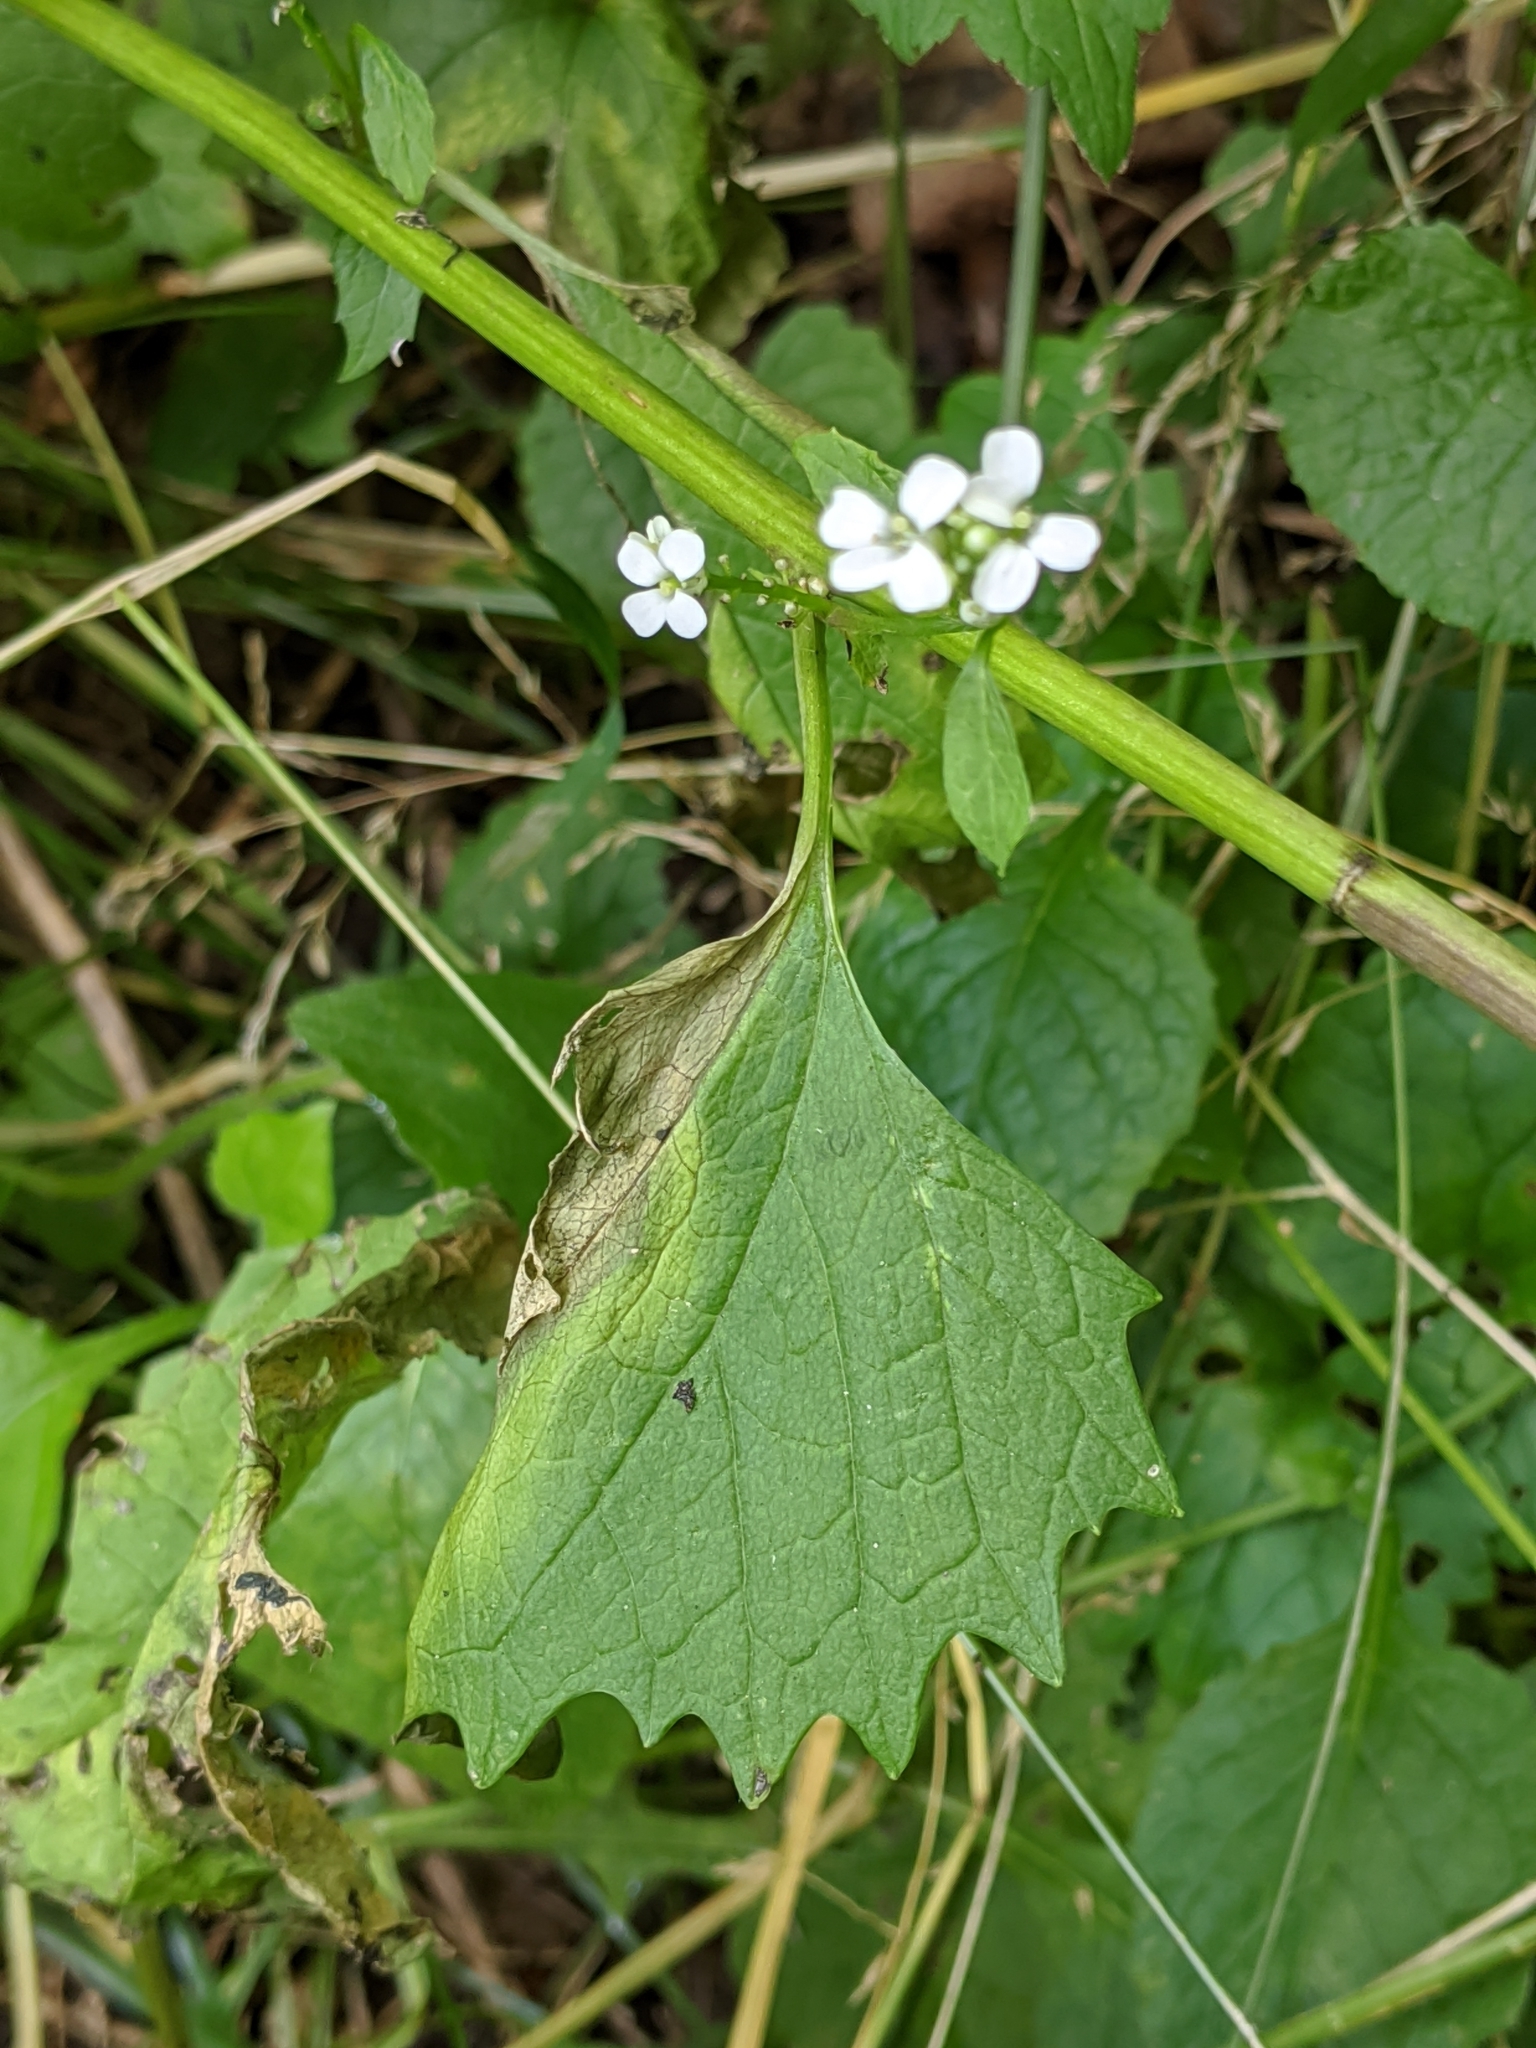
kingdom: Plantae
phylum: Tracheophyta
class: Magnoliopsida
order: Brassicales
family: Brassicaceae
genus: Alliaria
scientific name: Alliaria petiolata
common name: Garlic mustard
